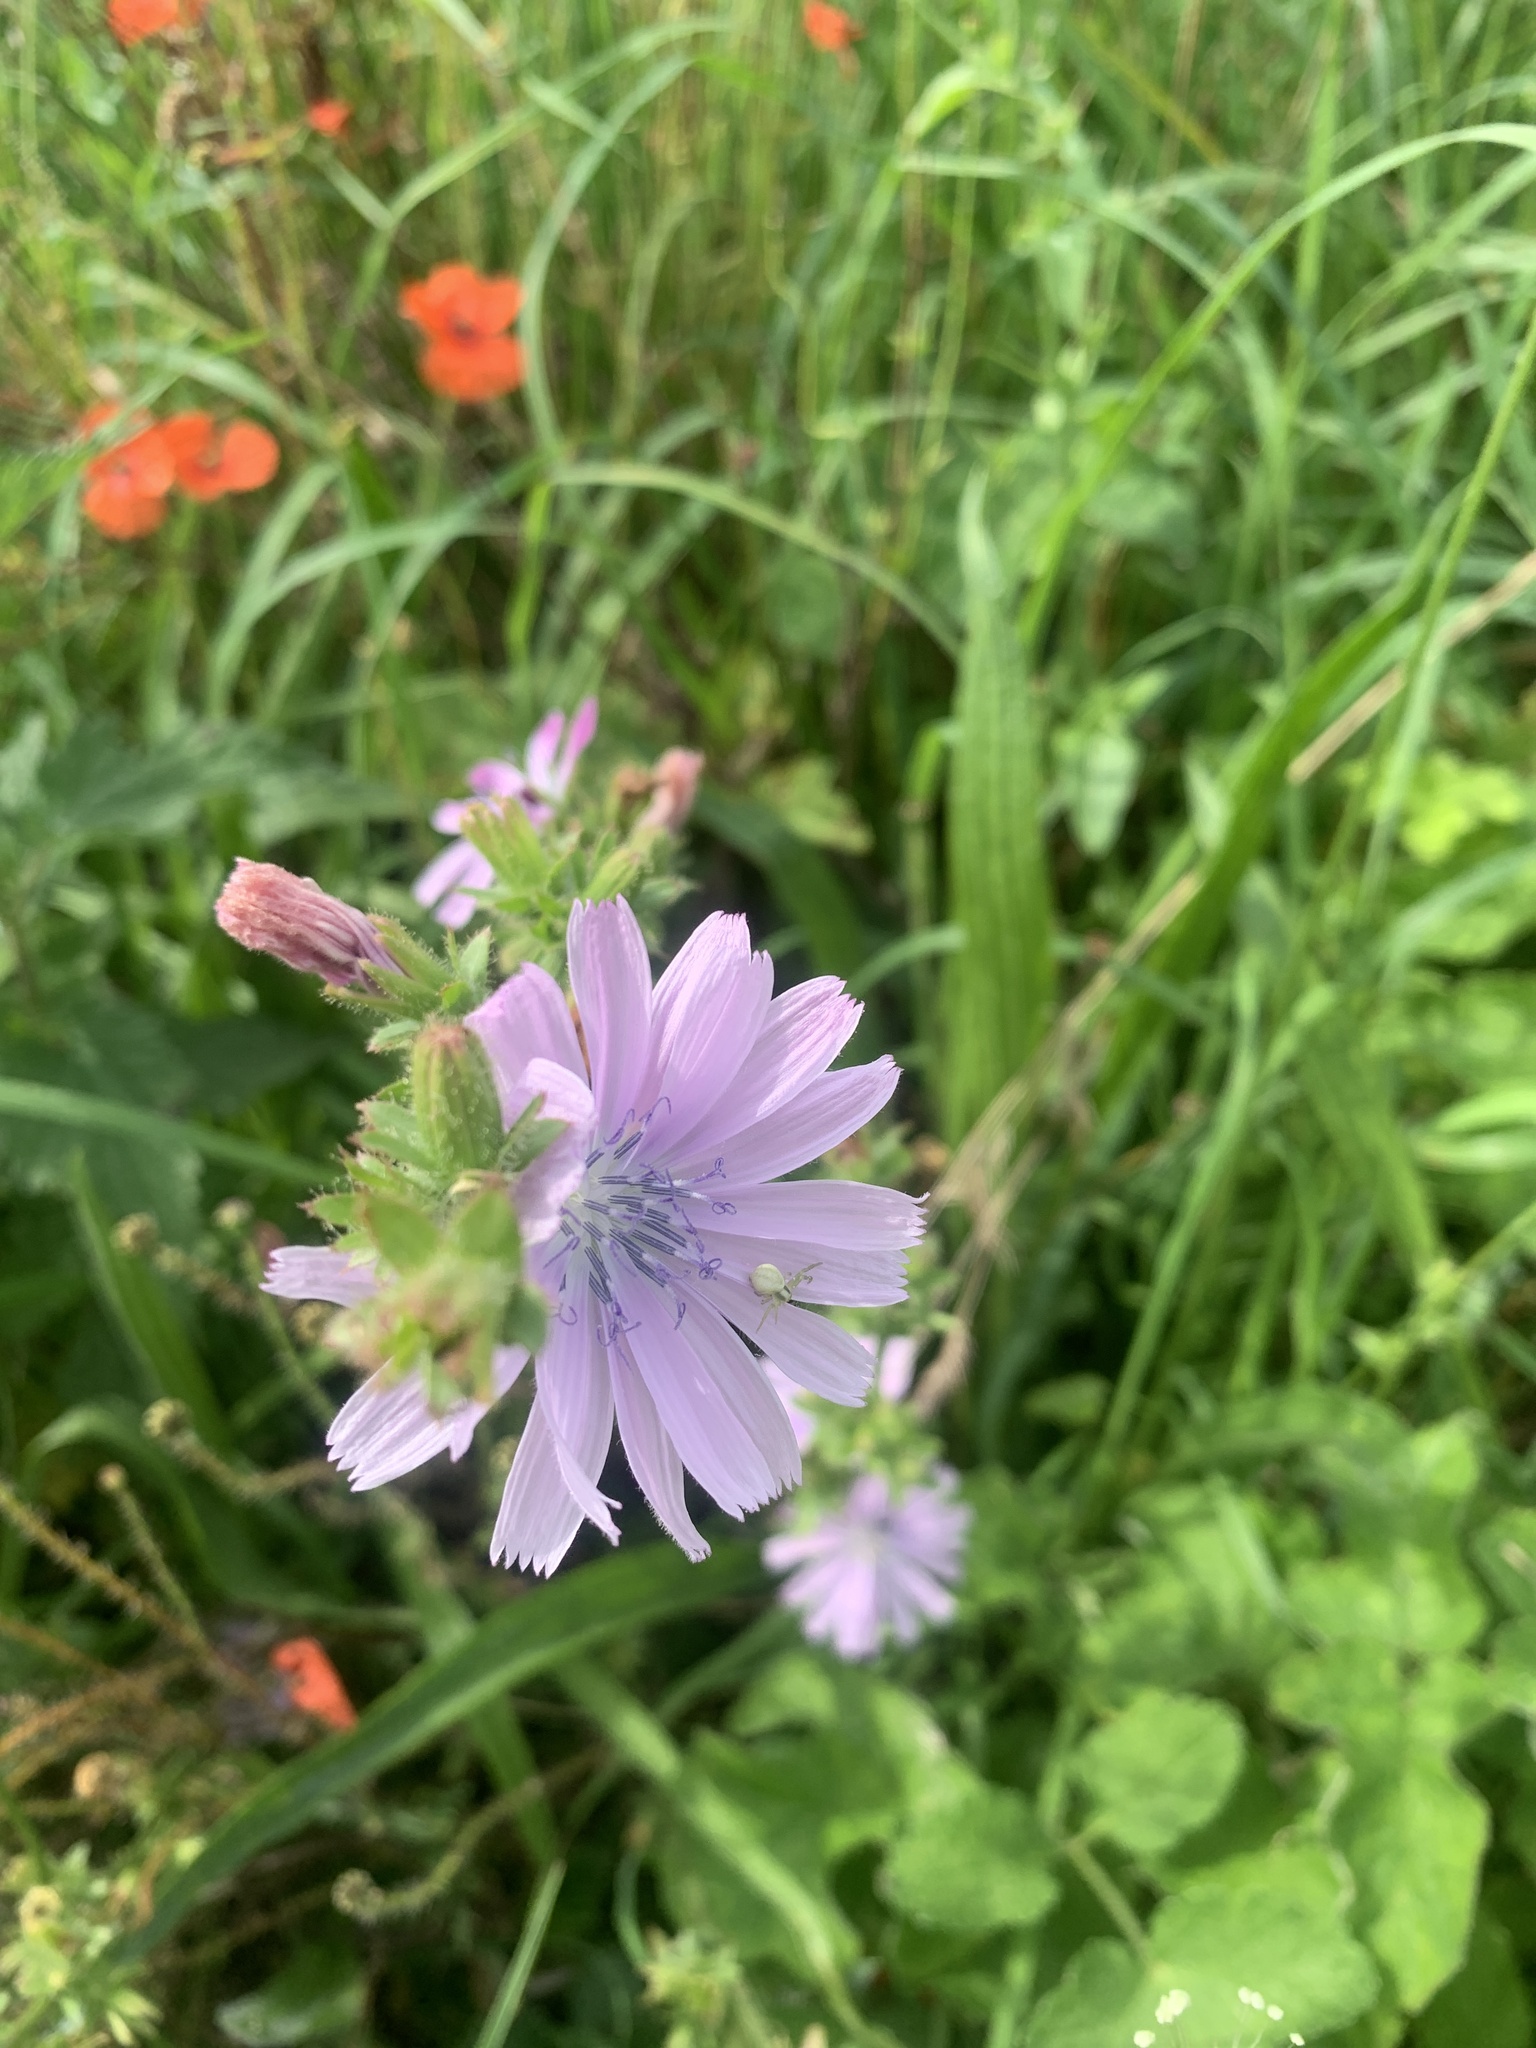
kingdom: Plantae
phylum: Tracheophyta
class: Magnoliopsida
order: Asterales
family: Asteraceae
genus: Cichorium
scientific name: Cichorium intybus
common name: Chicory
